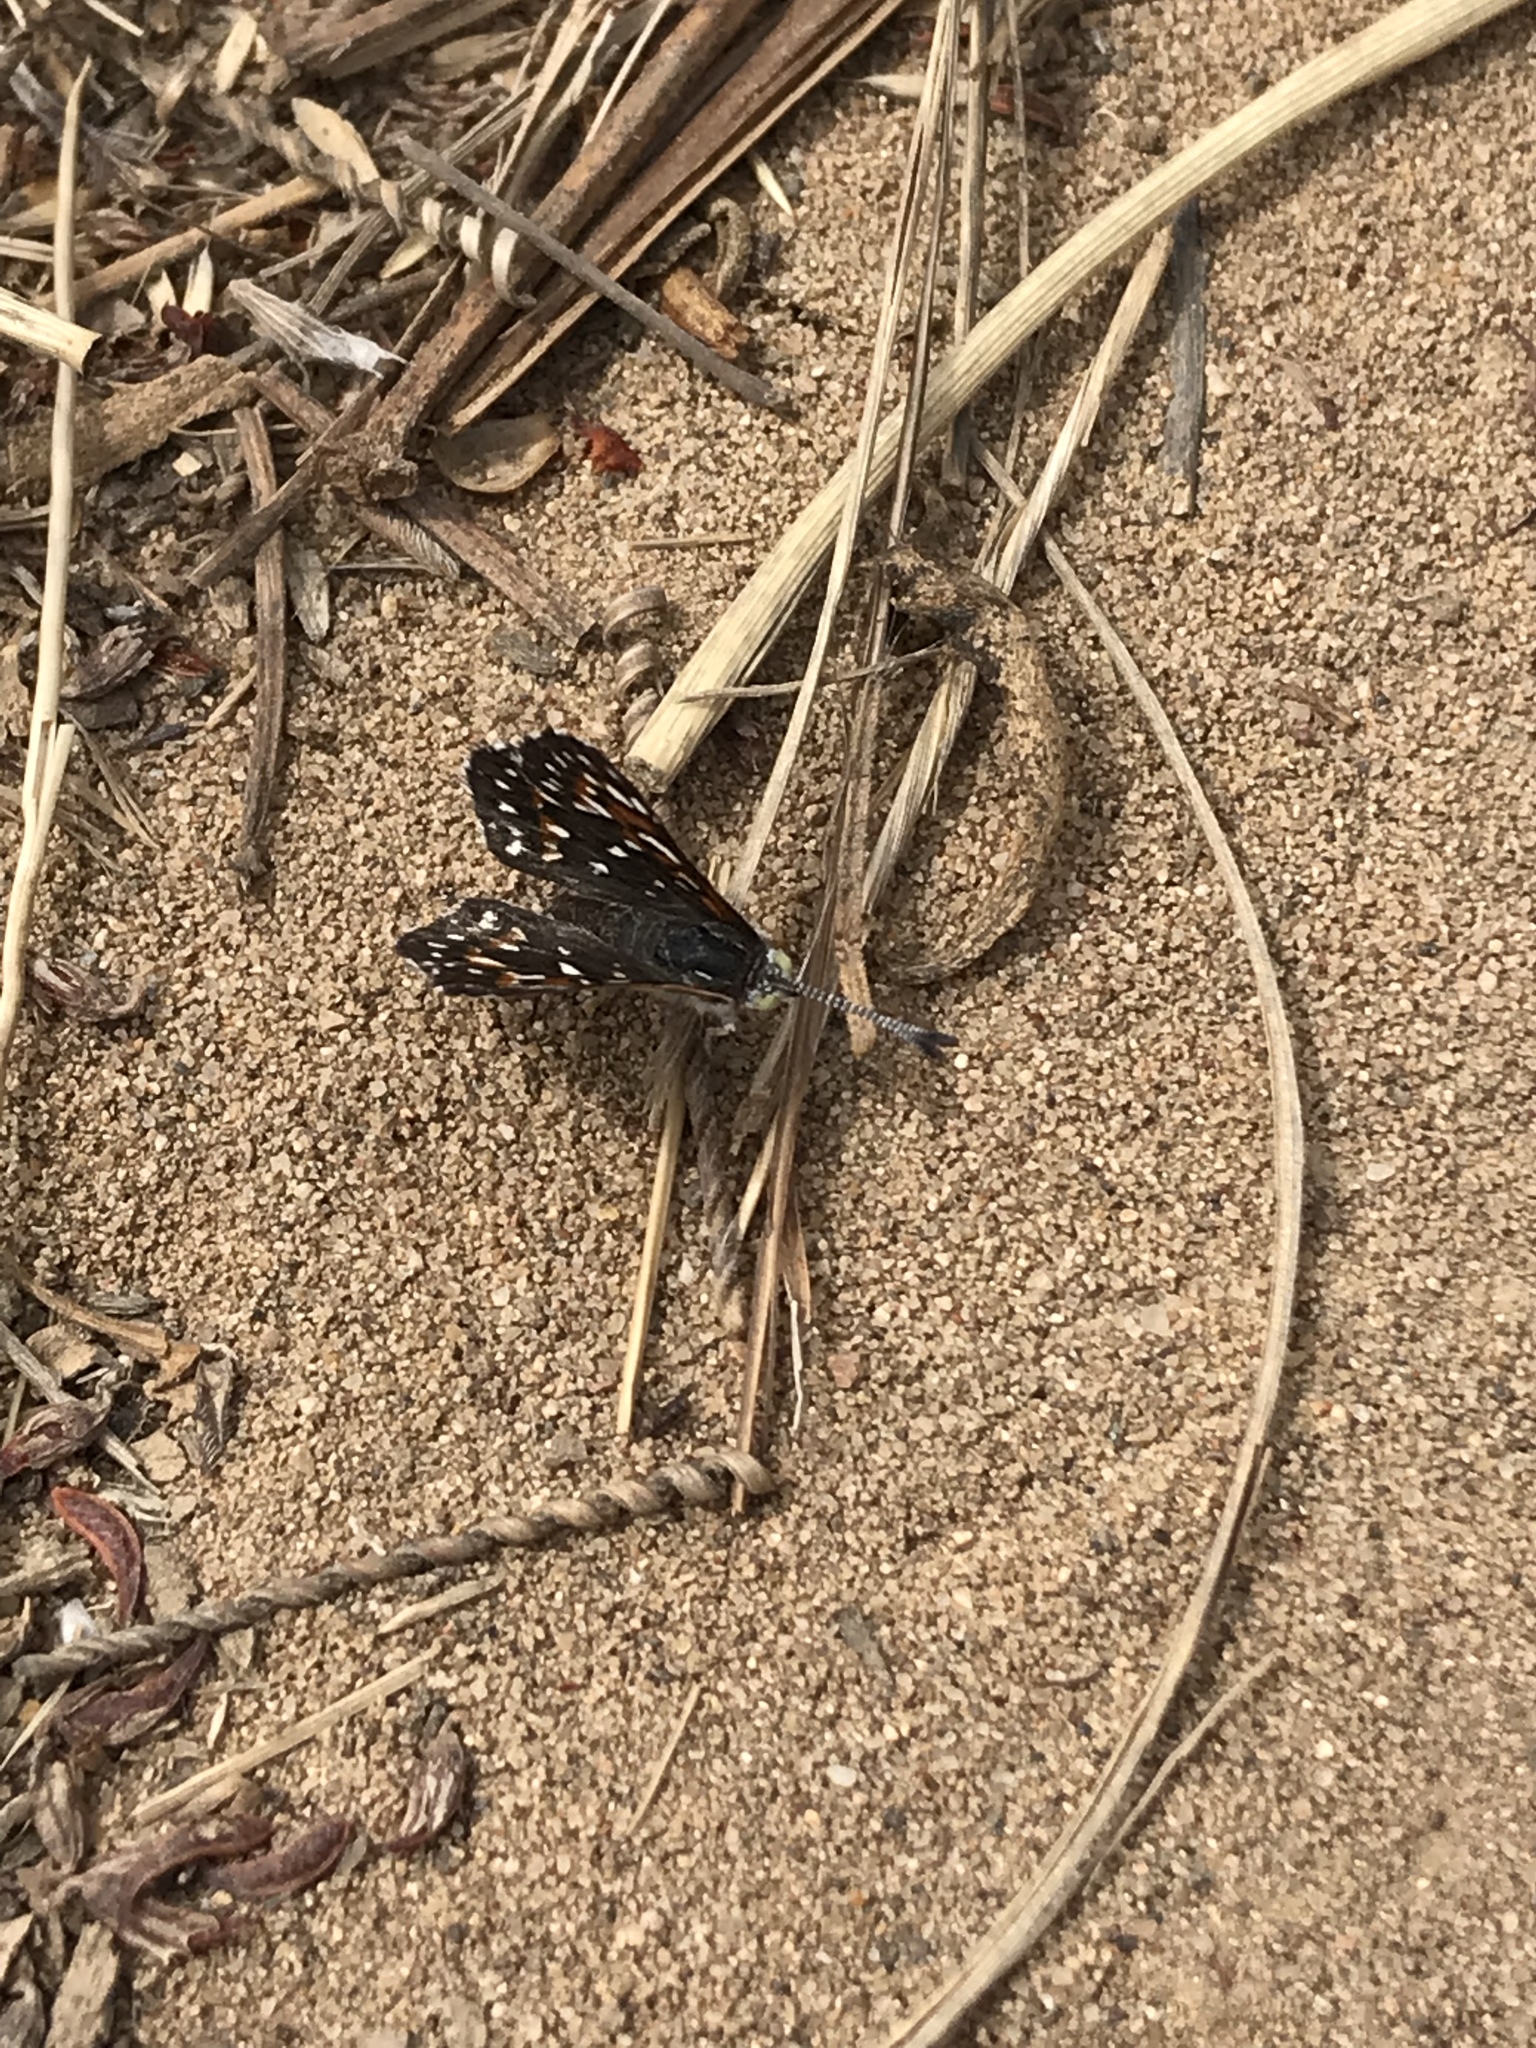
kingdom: Animalia
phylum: Arthropoda
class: Insecta
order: Lepidoptera
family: Riodinidae
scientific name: Riodinidae
